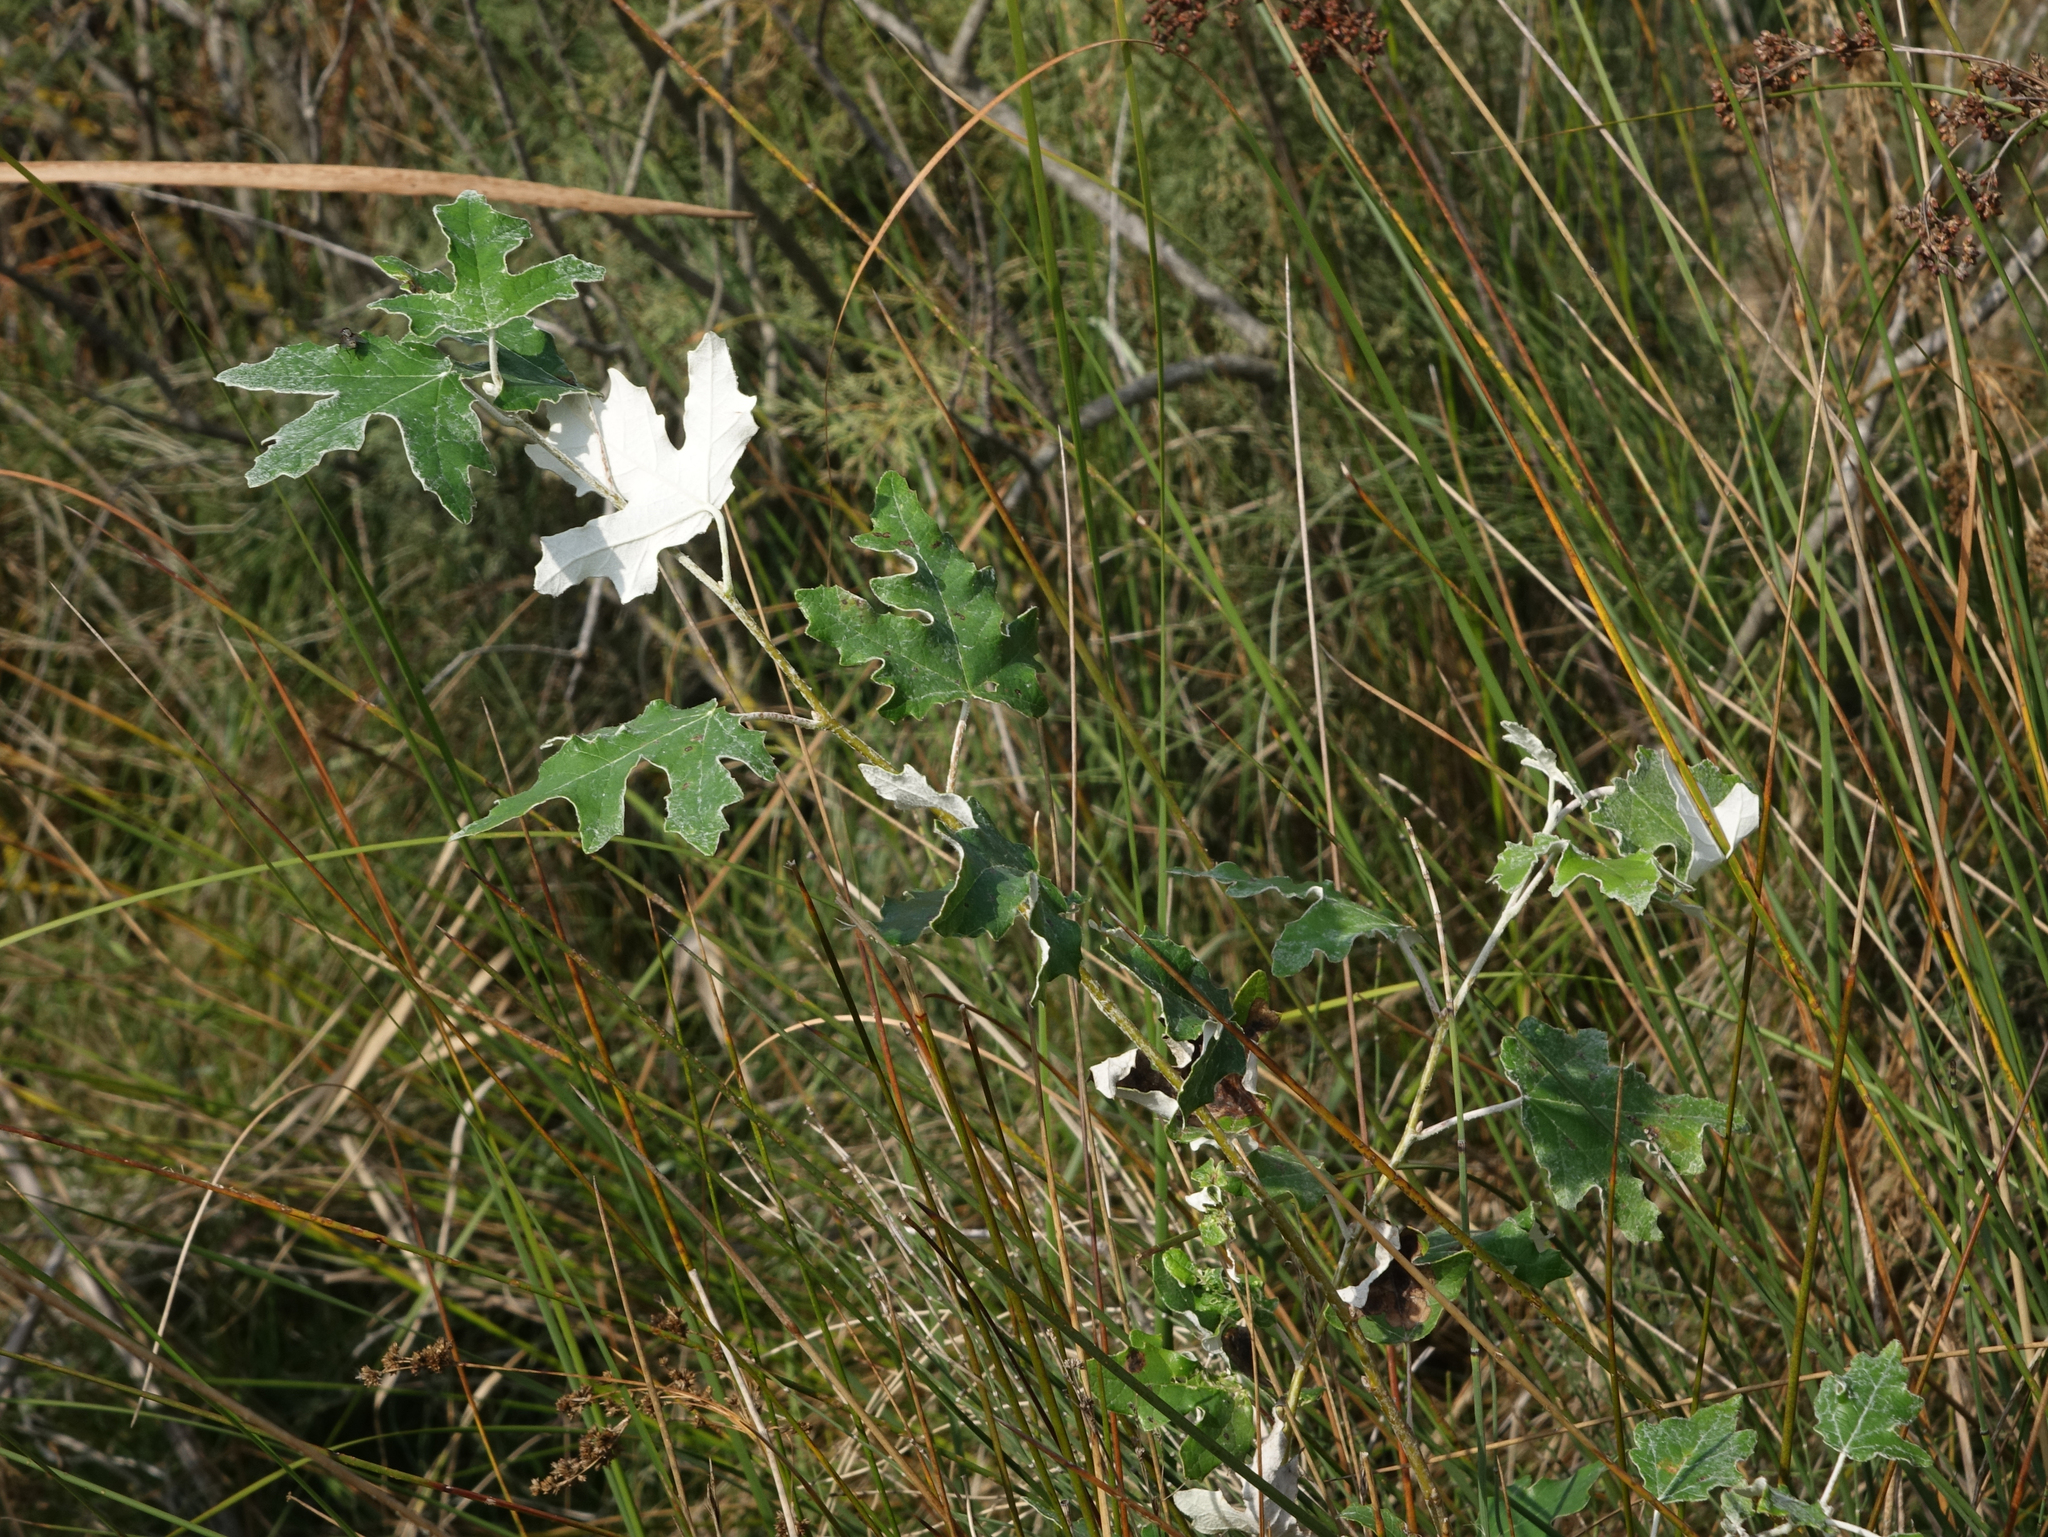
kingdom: Plantae
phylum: Tracheophyta
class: Magnoliopsida
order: Malpighiales
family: Salicaceae
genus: Populus
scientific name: Populus alba
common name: White poplar
